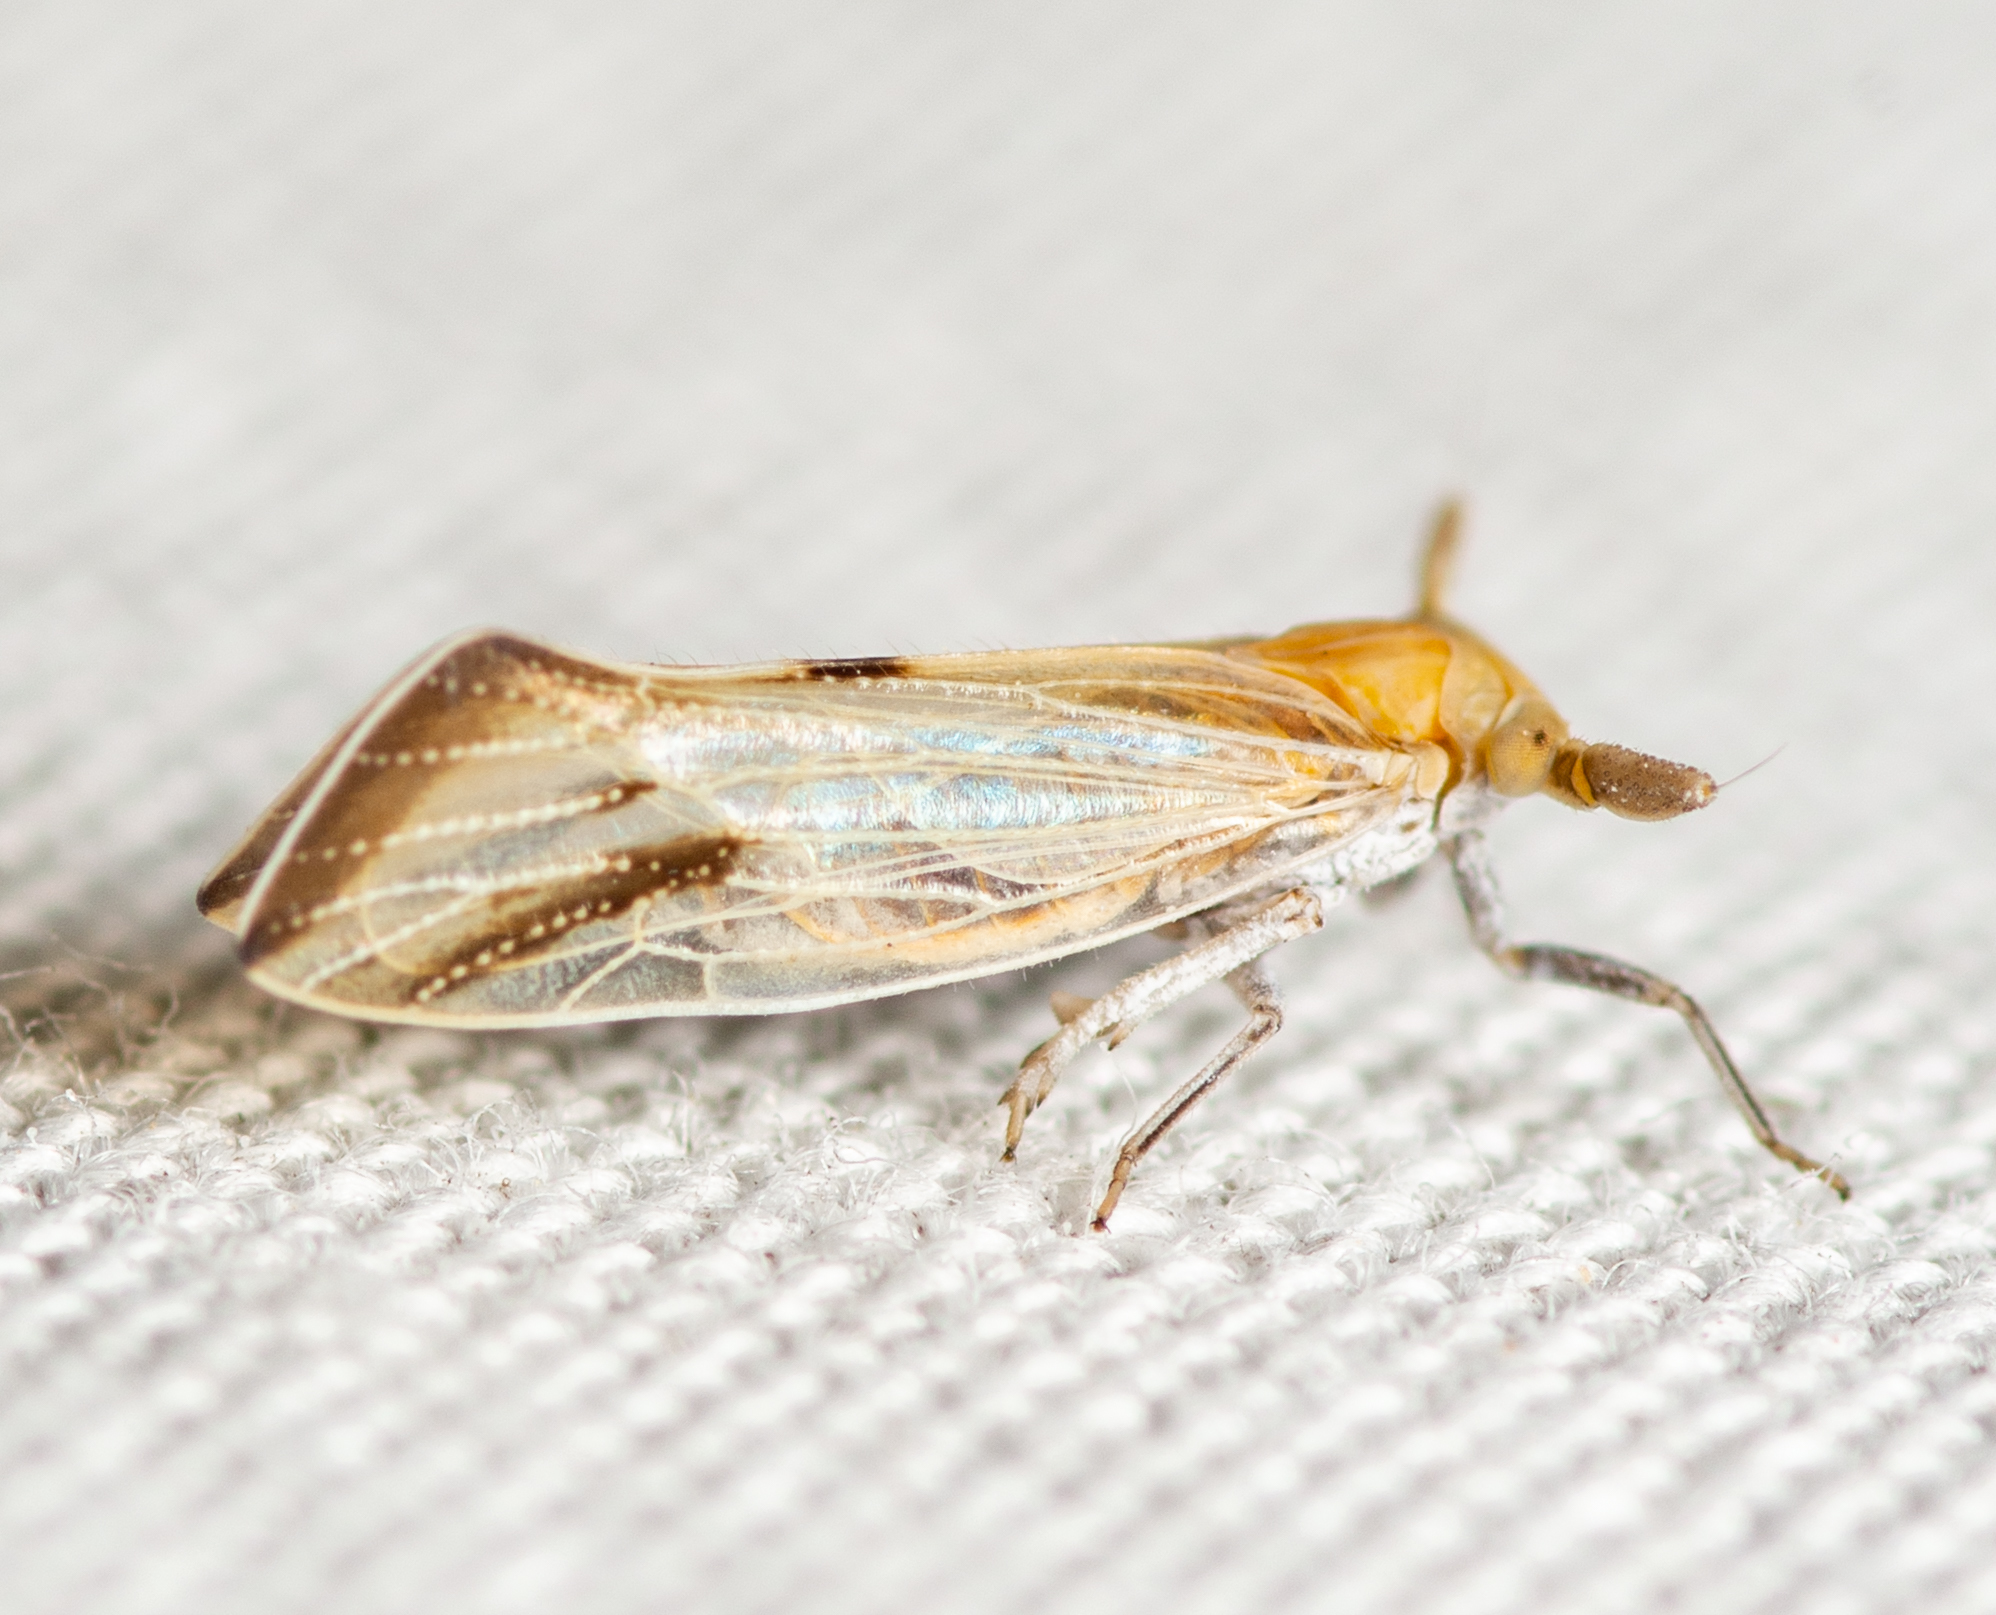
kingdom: Animalia
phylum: Arthropoda
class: Insecta
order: Hemiptera
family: Delphacidae
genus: Bostaera
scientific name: Bostaera nasuta
